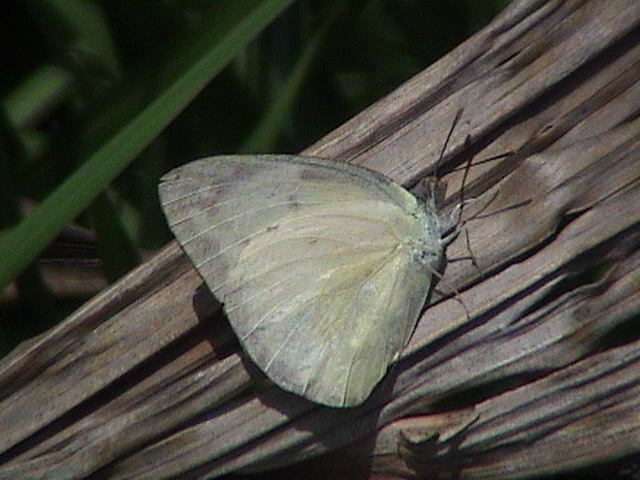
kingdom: Animalia
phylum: Arthropoda
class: Insecta
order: Lepidoptera
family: Pieridae
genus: Catopsilia
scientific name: Catopsilia pomona
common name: Common emigrant
